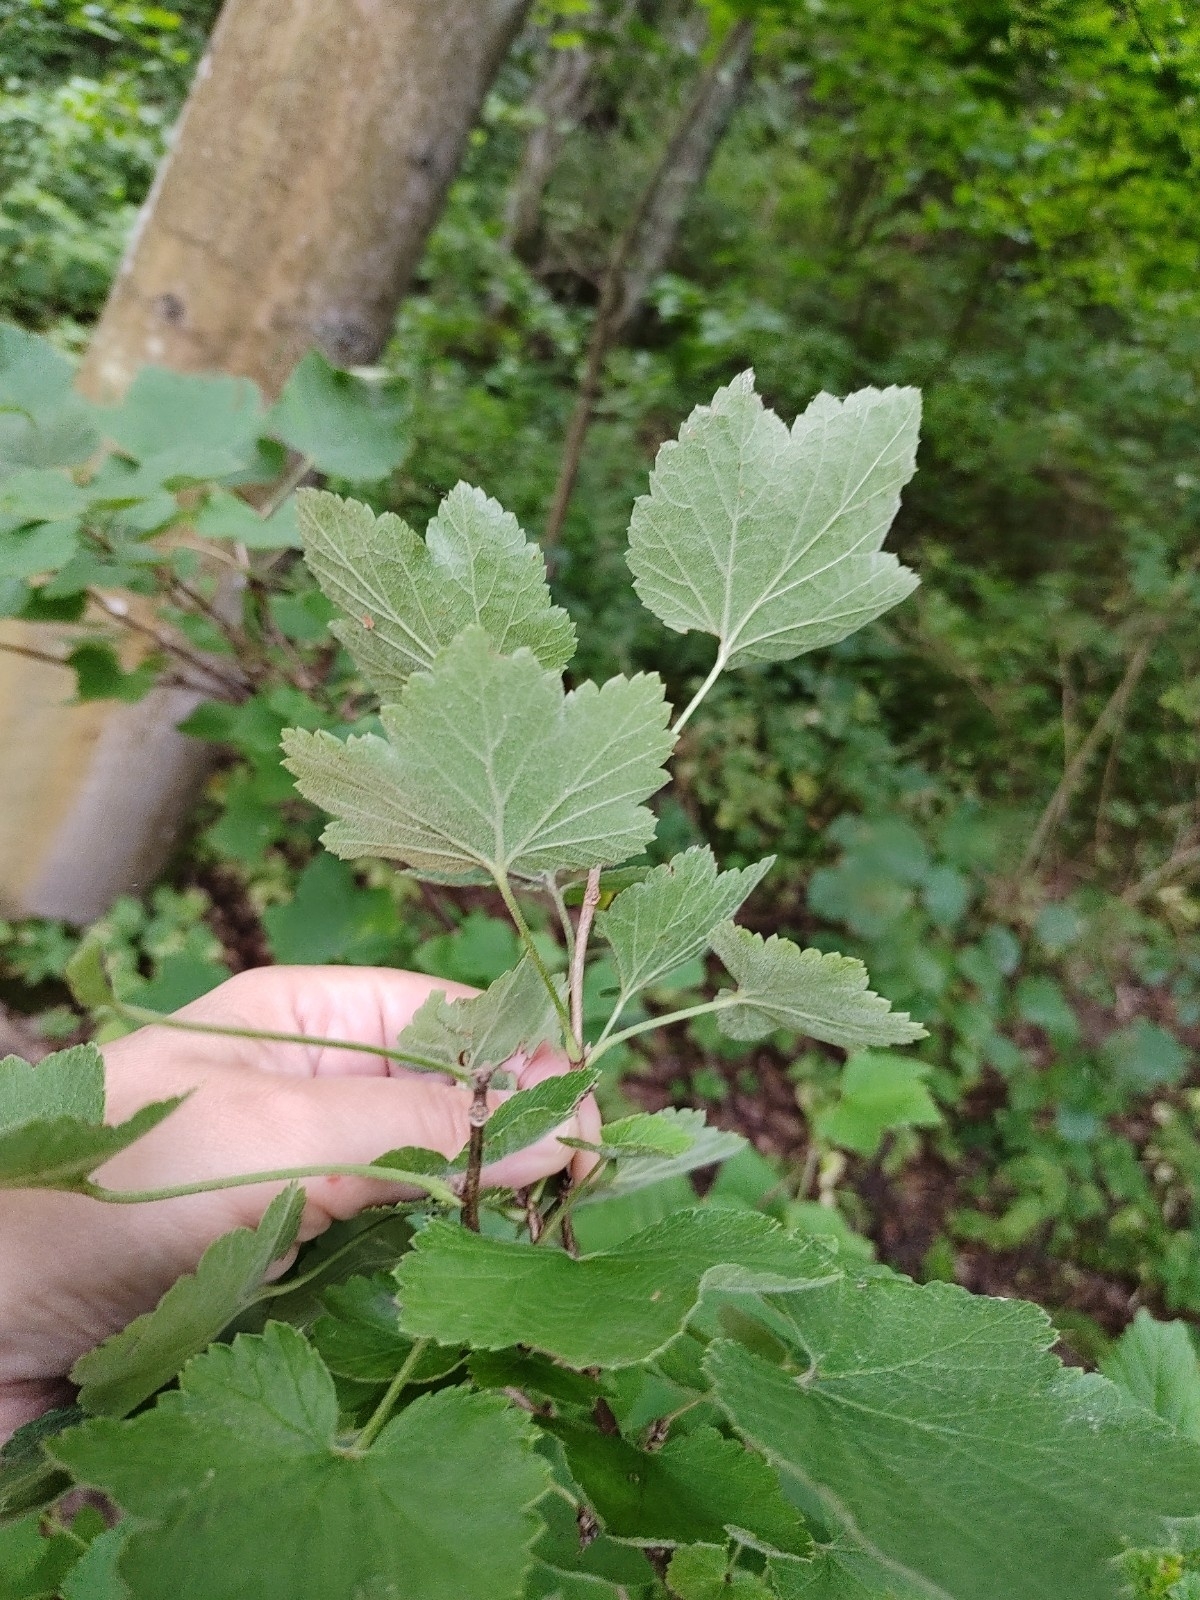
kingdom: Plantae
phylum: Tracheophyta
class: Magnoliopsida
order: Saxifragales
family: Grossulariaceae
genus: Ribes
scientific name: Ribes rubrum
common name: Red currant
